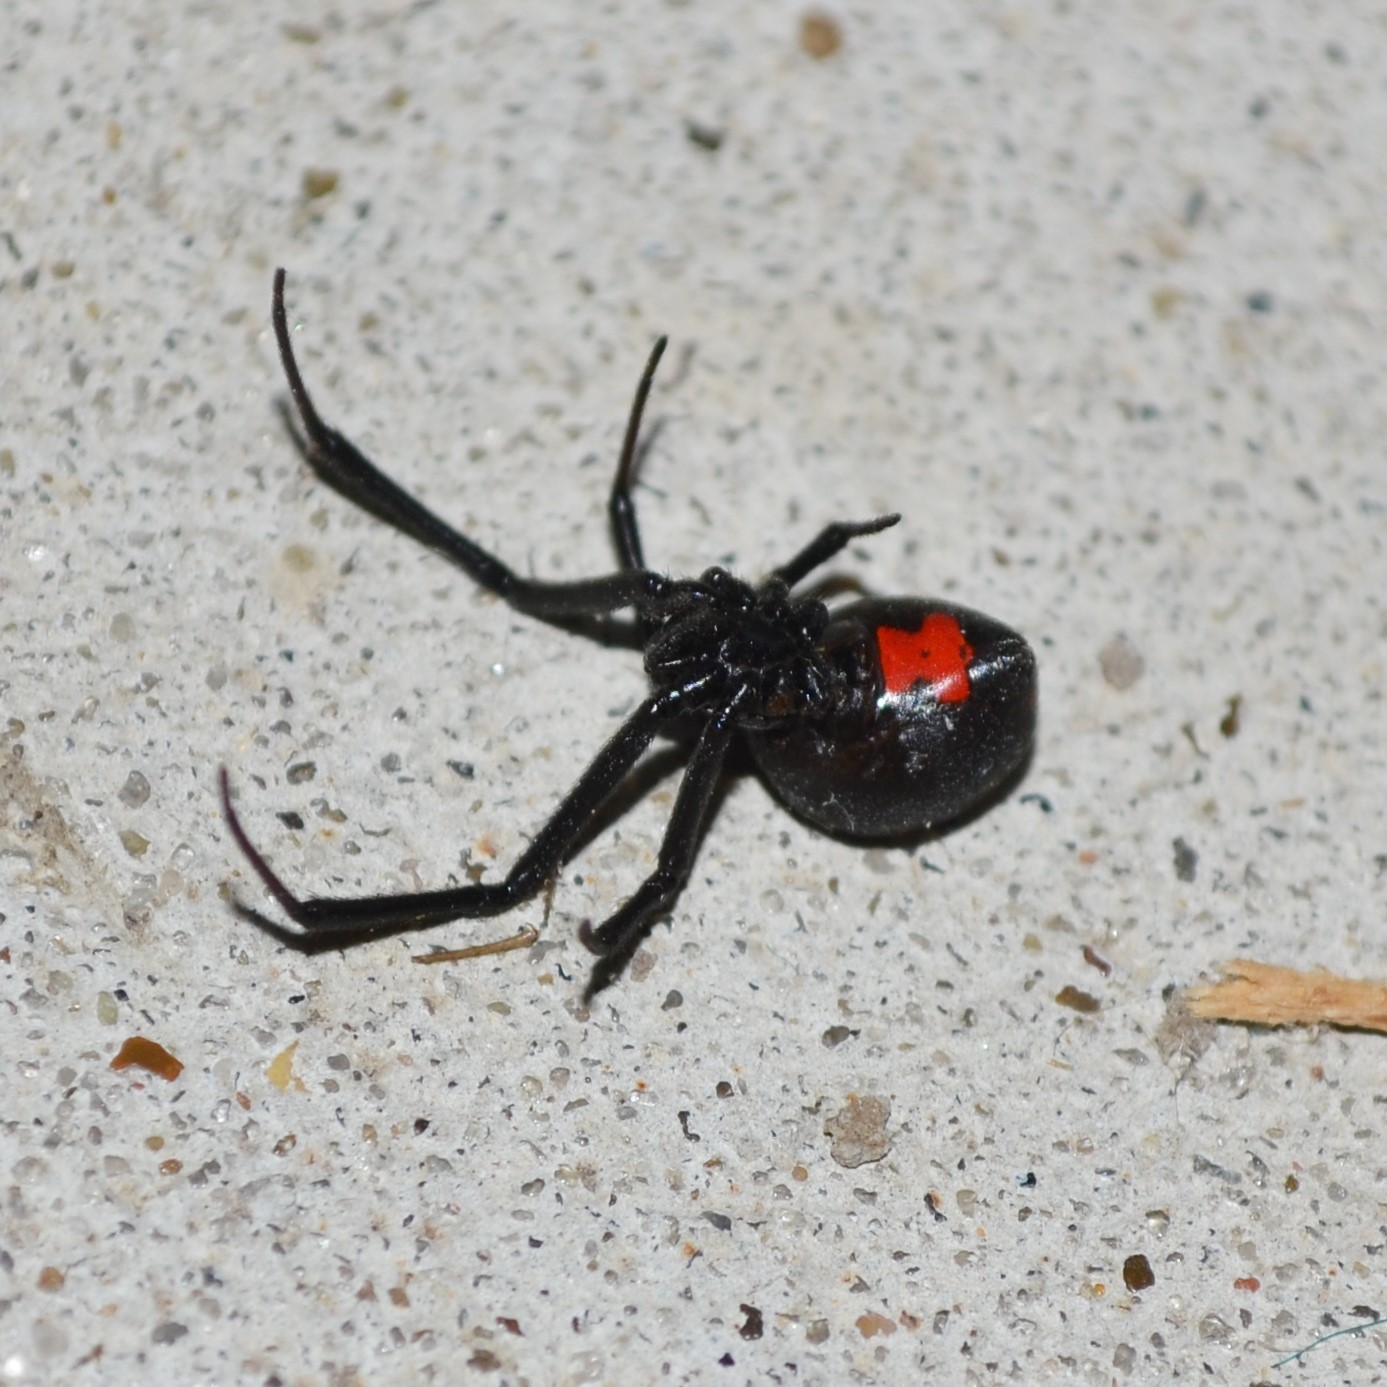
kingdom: Animalia
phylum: Arthropoda
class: Arachnida
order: Araneae
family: Theridiidae
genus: Latrodectus
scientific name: Latrodectus mactans
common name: Cobweb spiders
